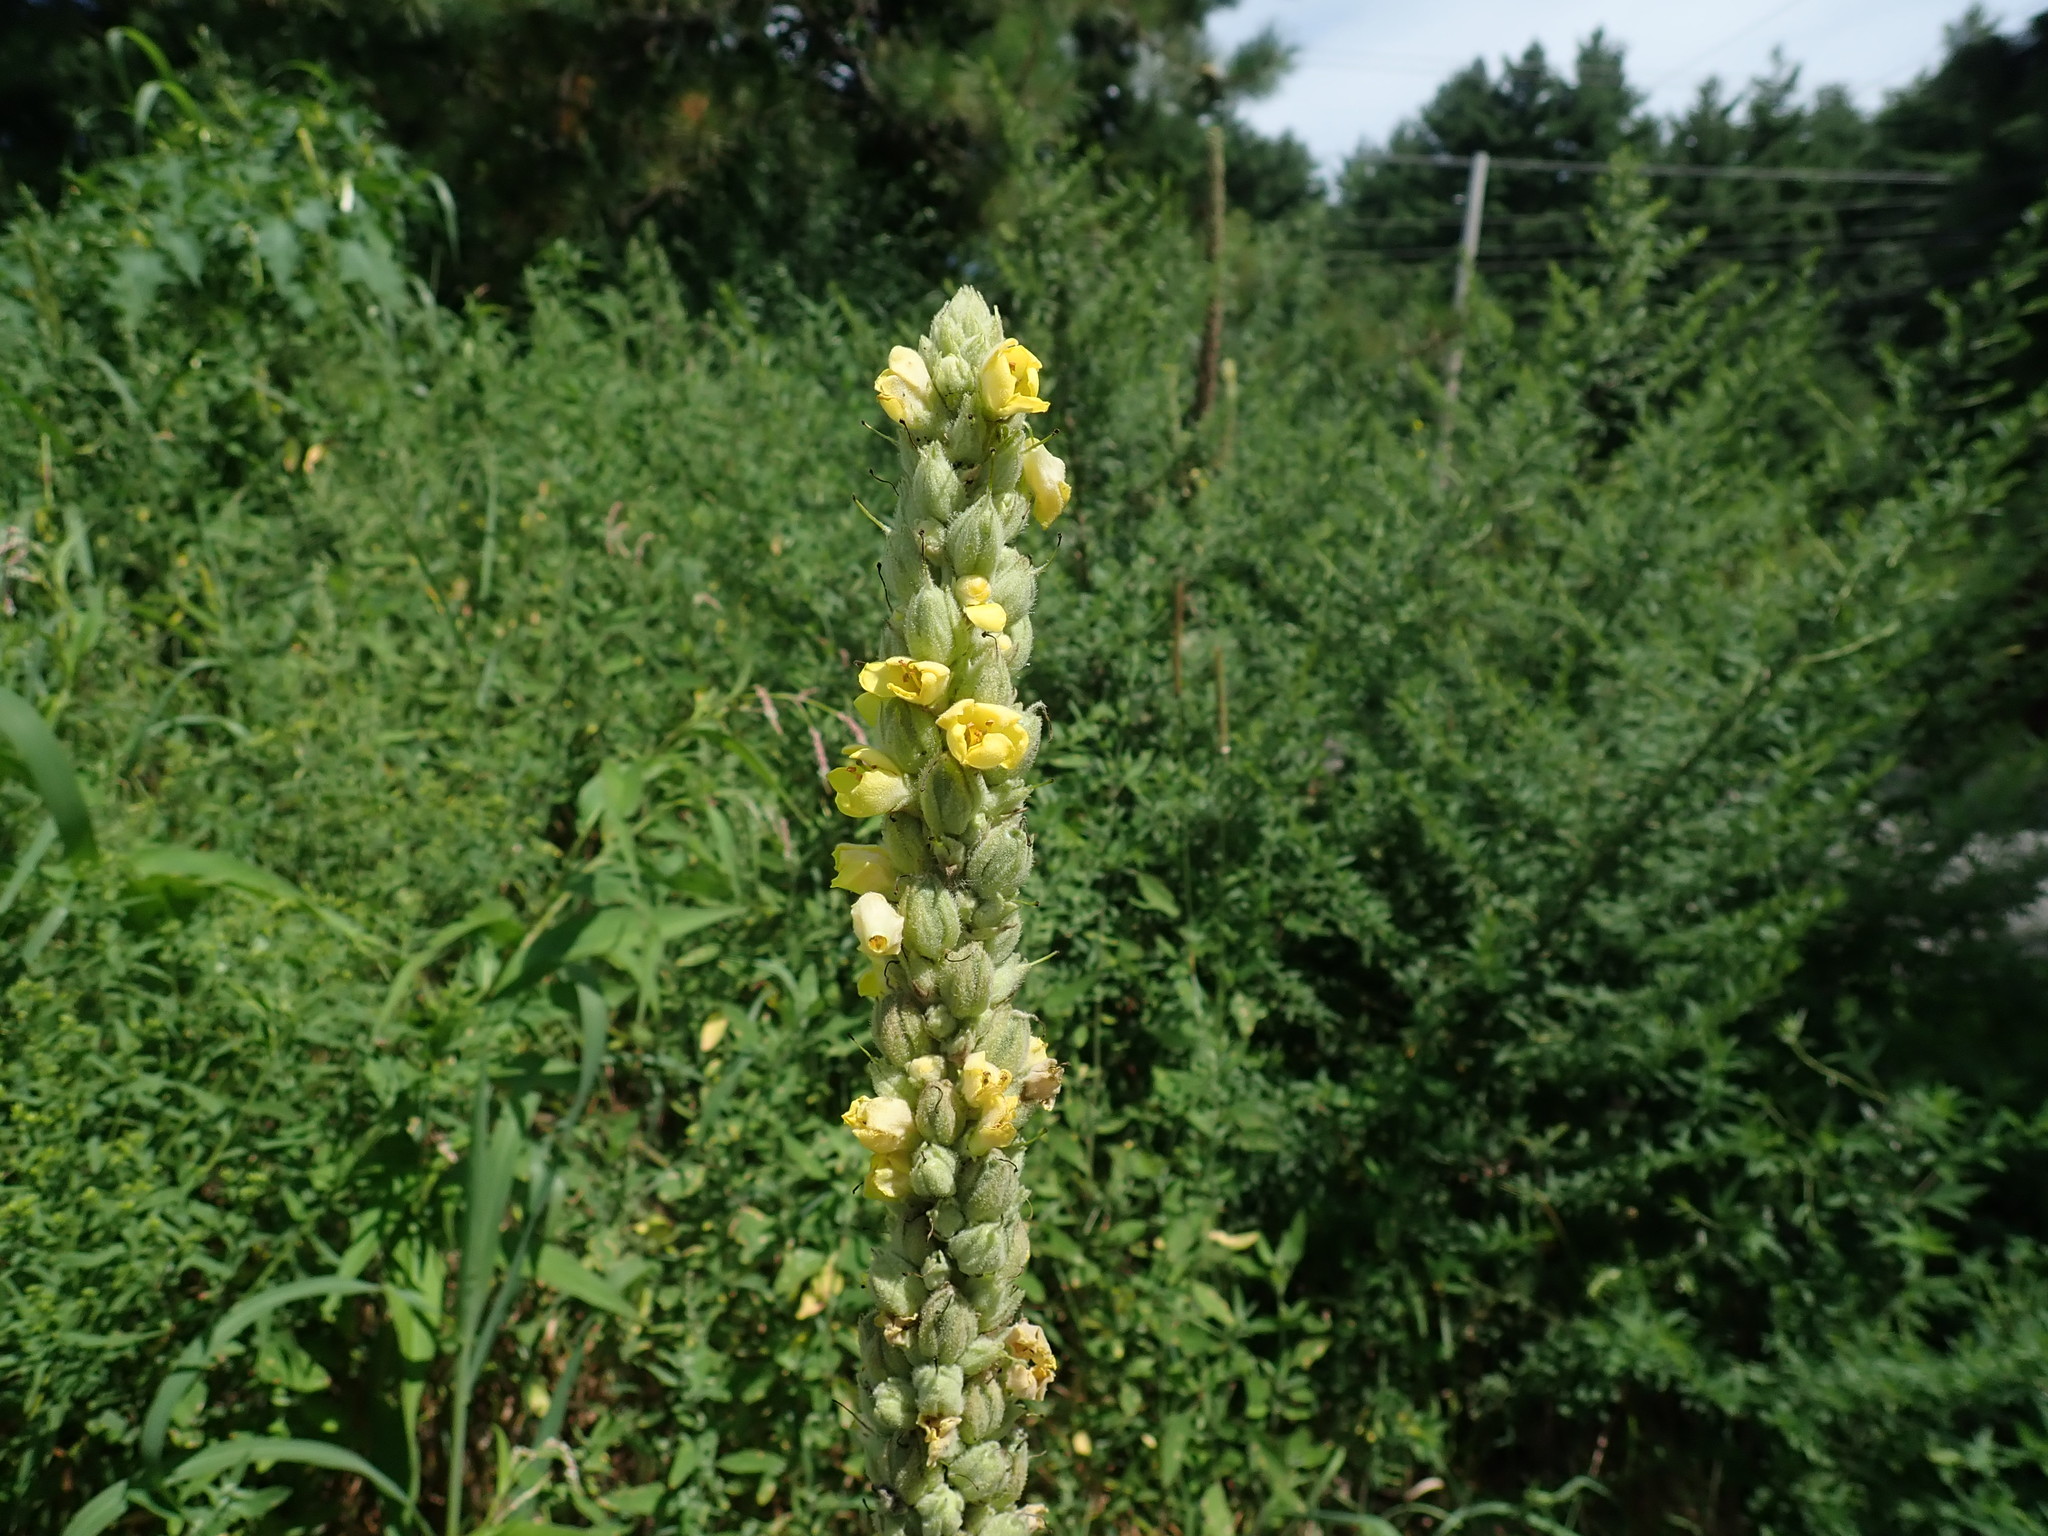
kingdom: Plantae
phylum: Tracheophyta
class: Magnoliopsida
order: Lamiales
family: Scrophulariaceae
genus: Verbascum
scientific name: Verbascum thapsus
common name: Common mullein
